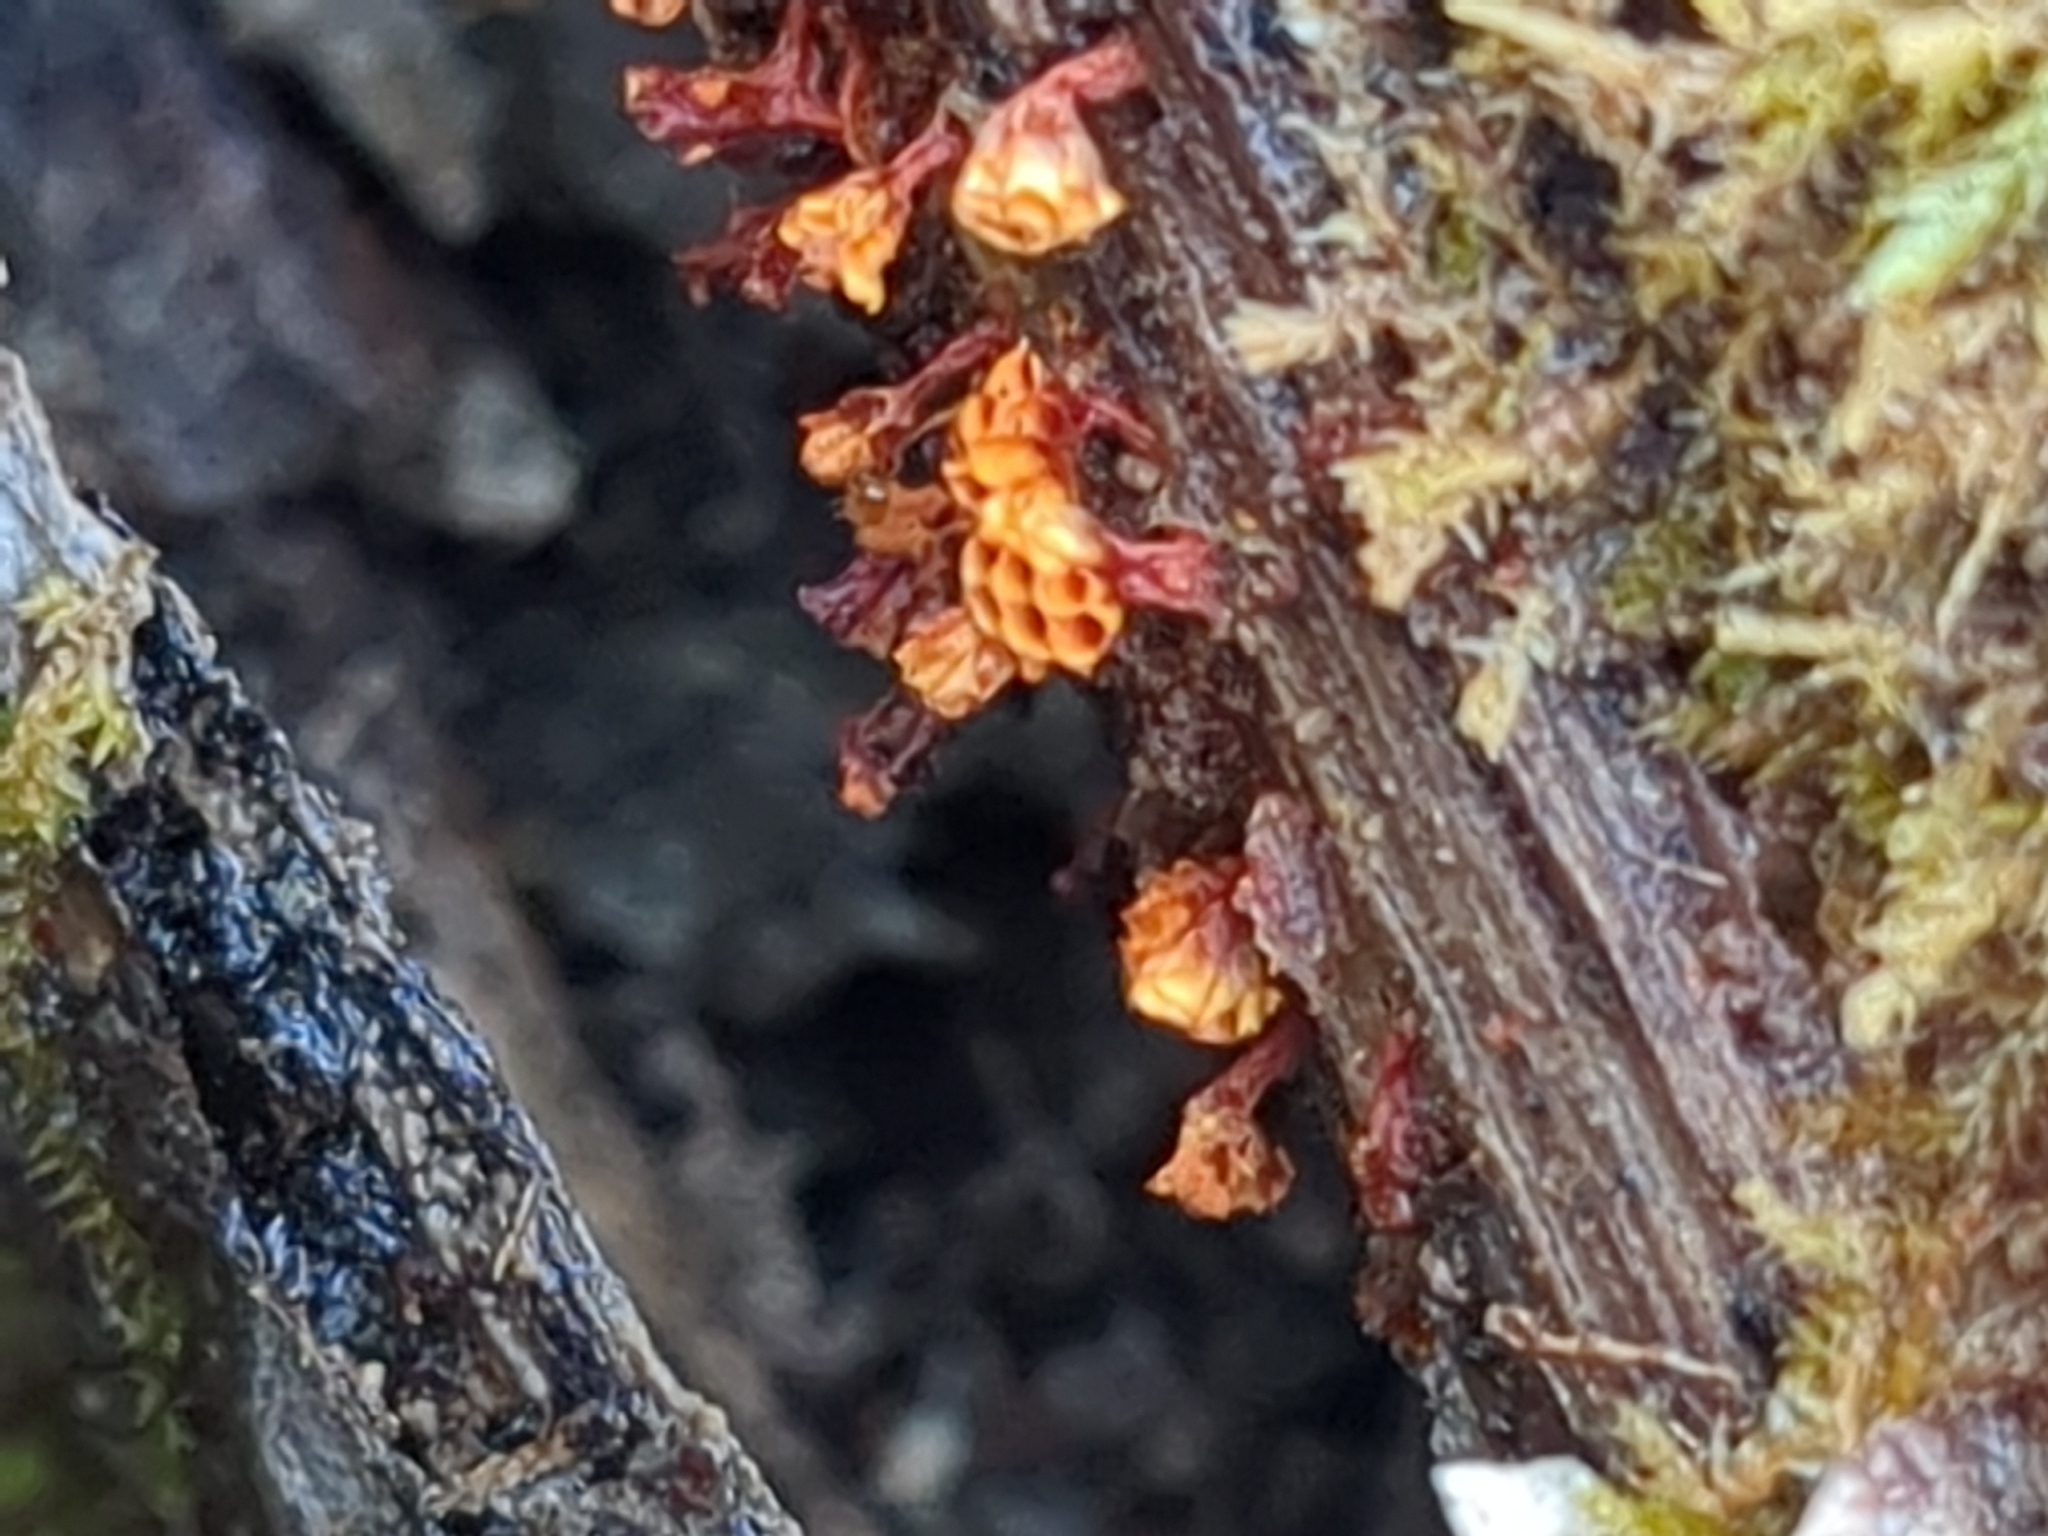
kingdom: Protozoa
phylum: Mycetozoa
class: Myxomycetes
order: Trichiales
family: Trichiaceae
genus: Metatrichia
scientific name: Metatrichia vesparia
